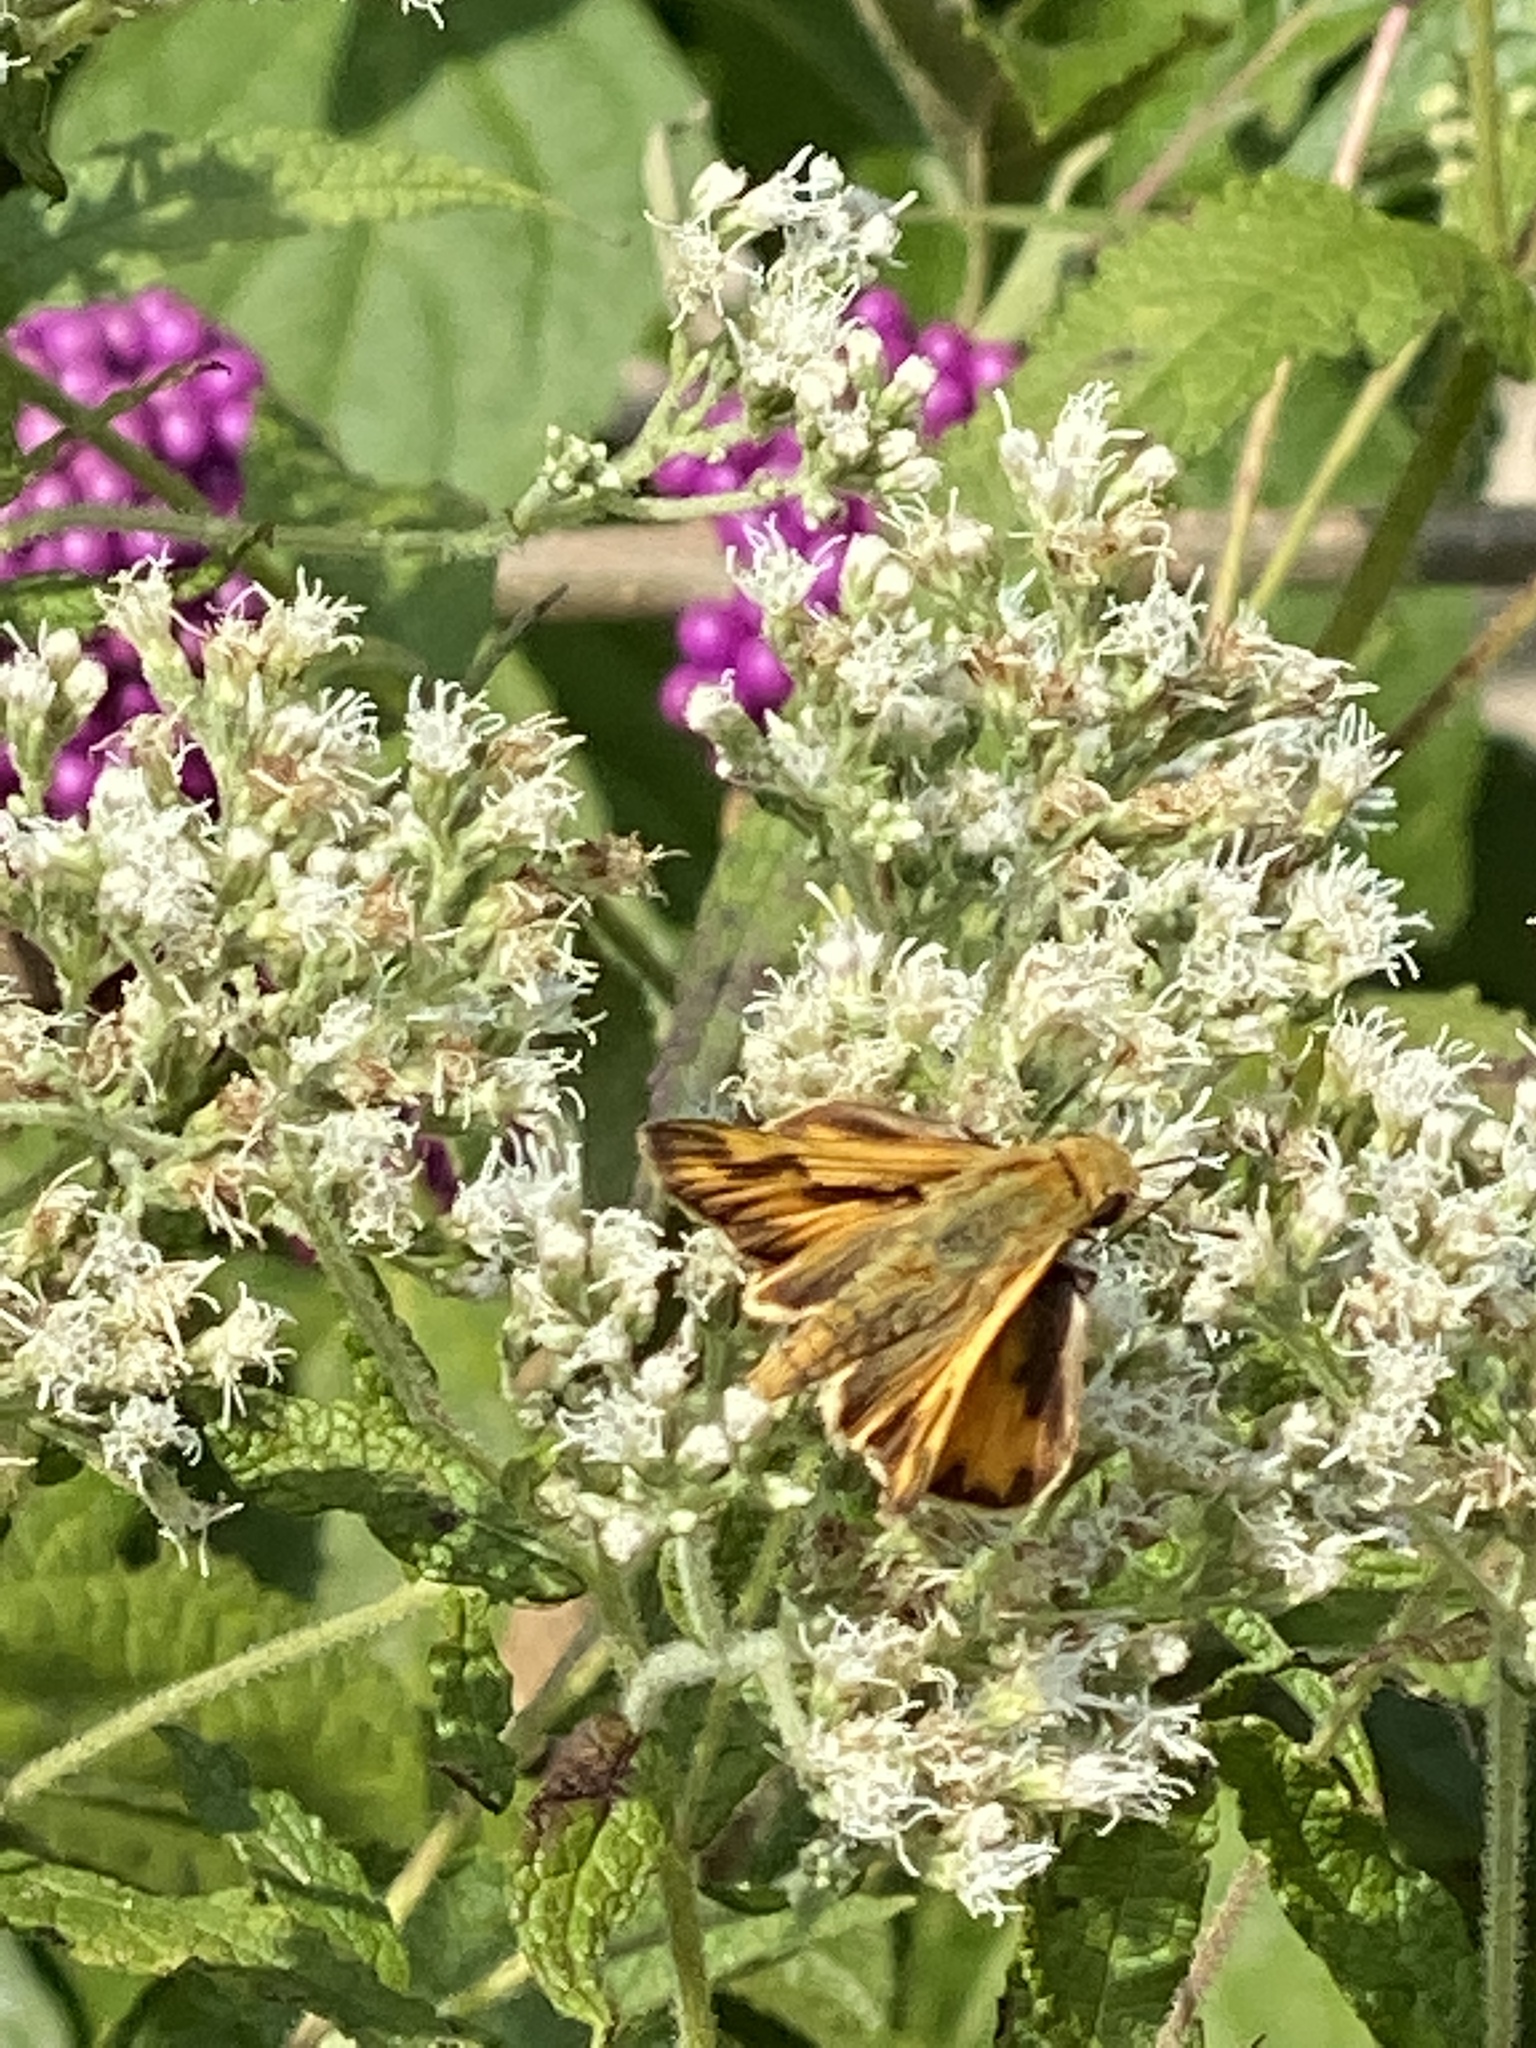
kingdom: Animalia
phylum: Arthropoda
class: Insecta
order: Lepidoptera
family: Hesperiidae
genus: Hylephila
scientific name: Hylephila phyleus
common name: Fiery skipper
